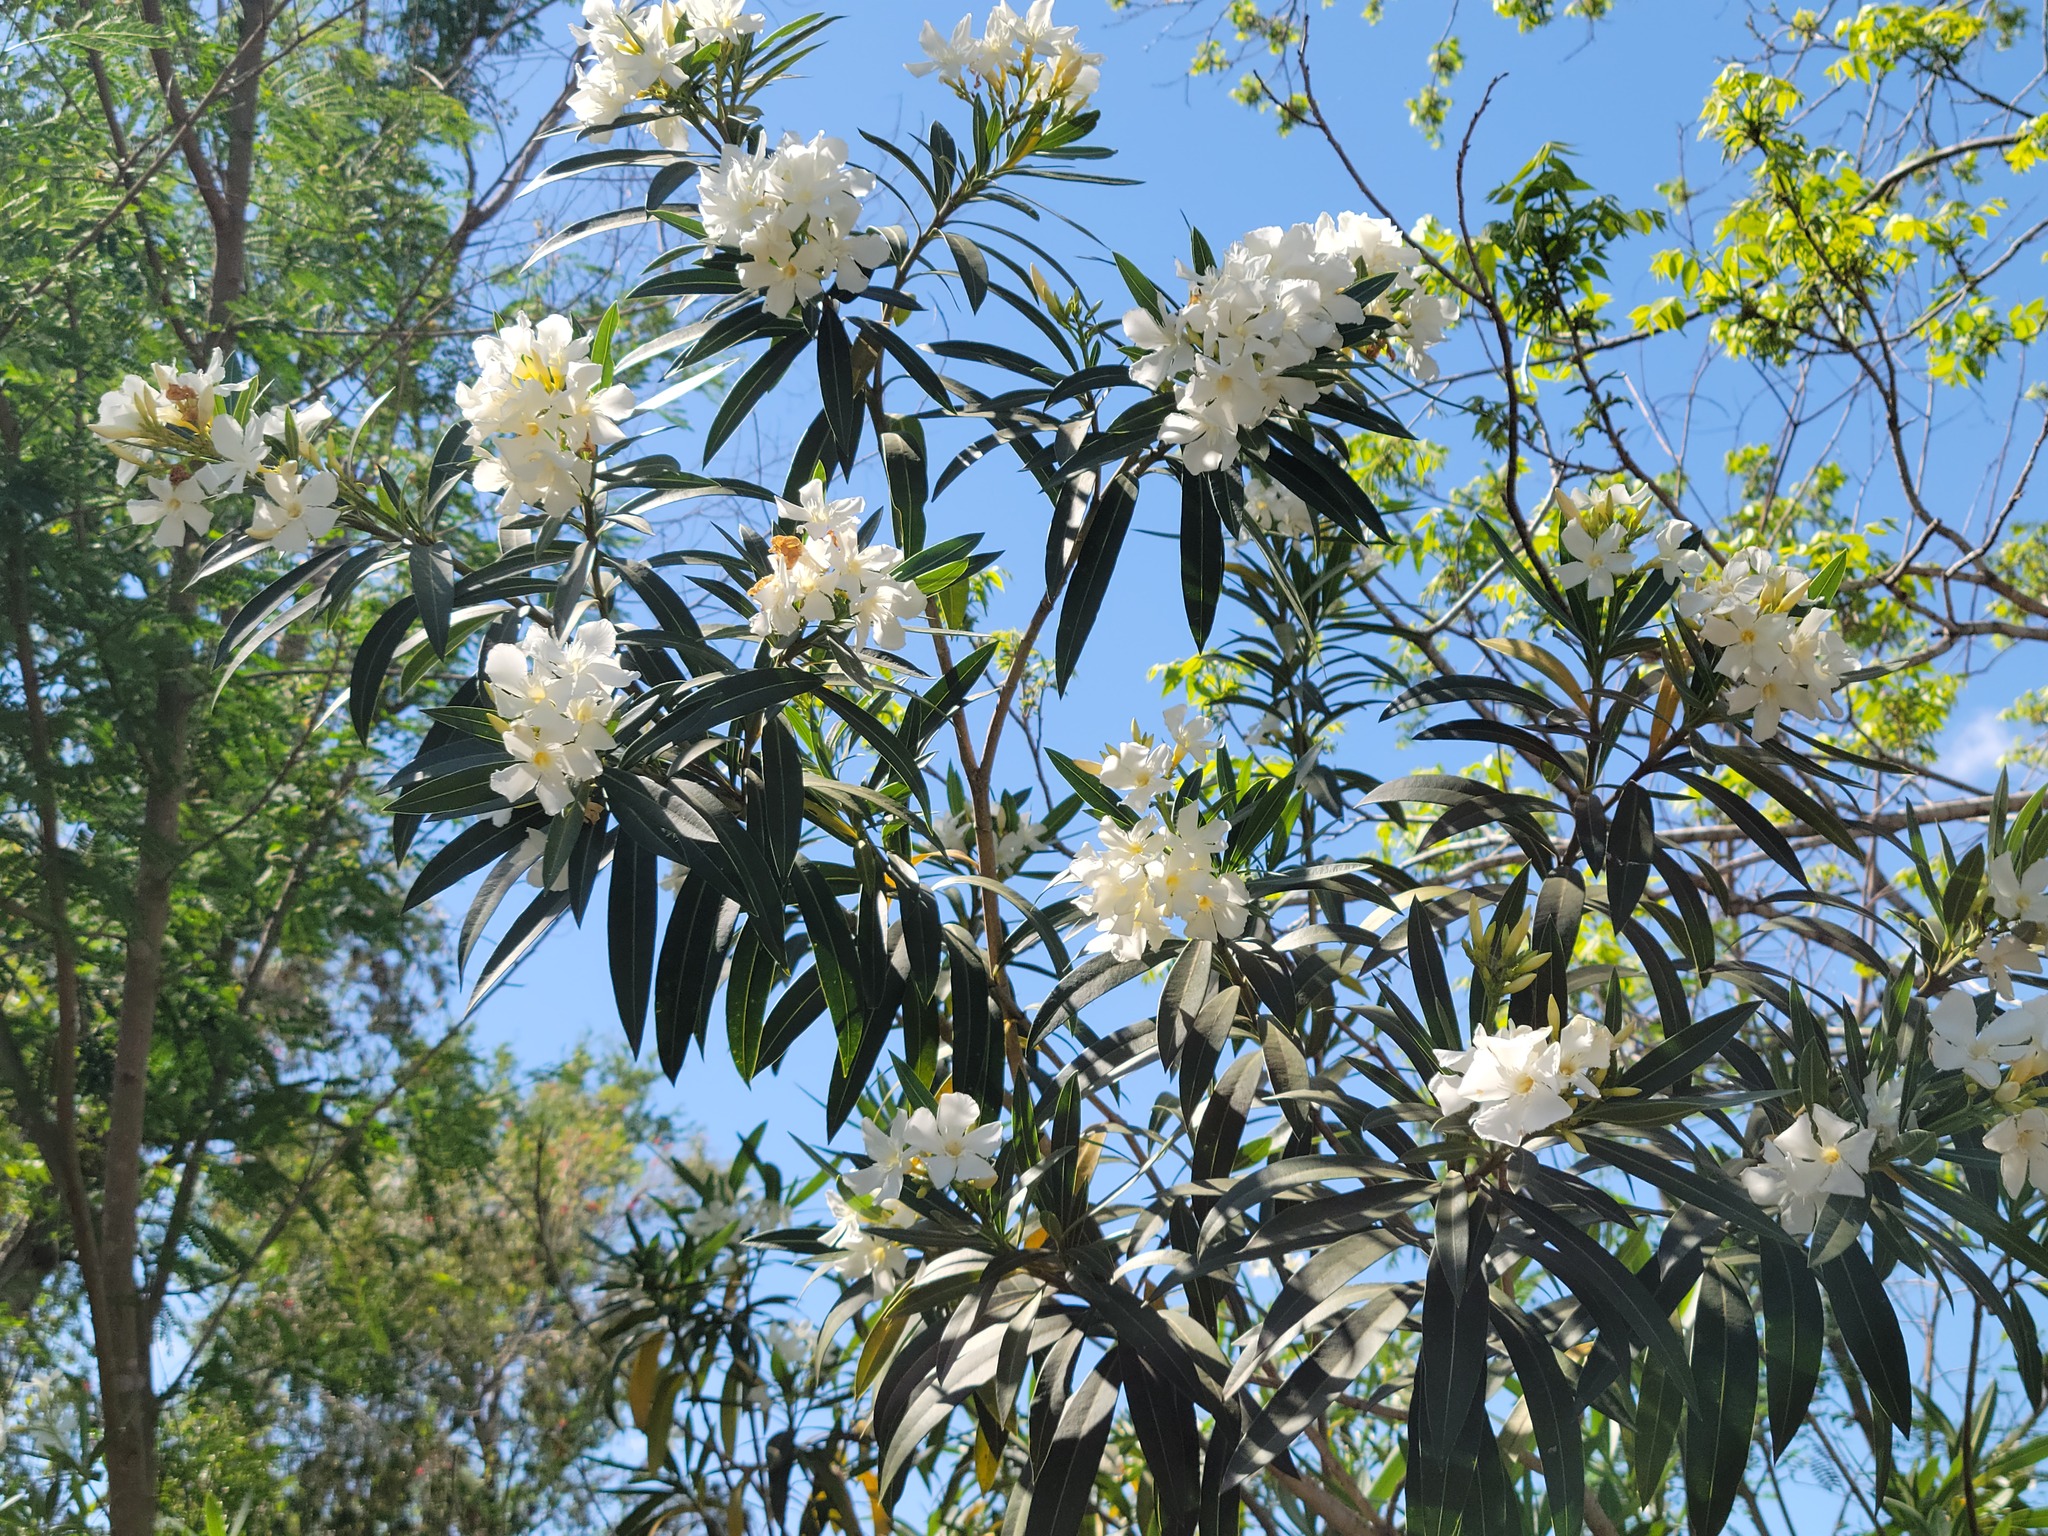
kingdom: Plantae
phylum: Tracheophyta
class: Magnoliopsida
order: Gentianales
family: Apocynaceae
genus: Nerium
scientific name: Nerium oleander
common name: Oleander
